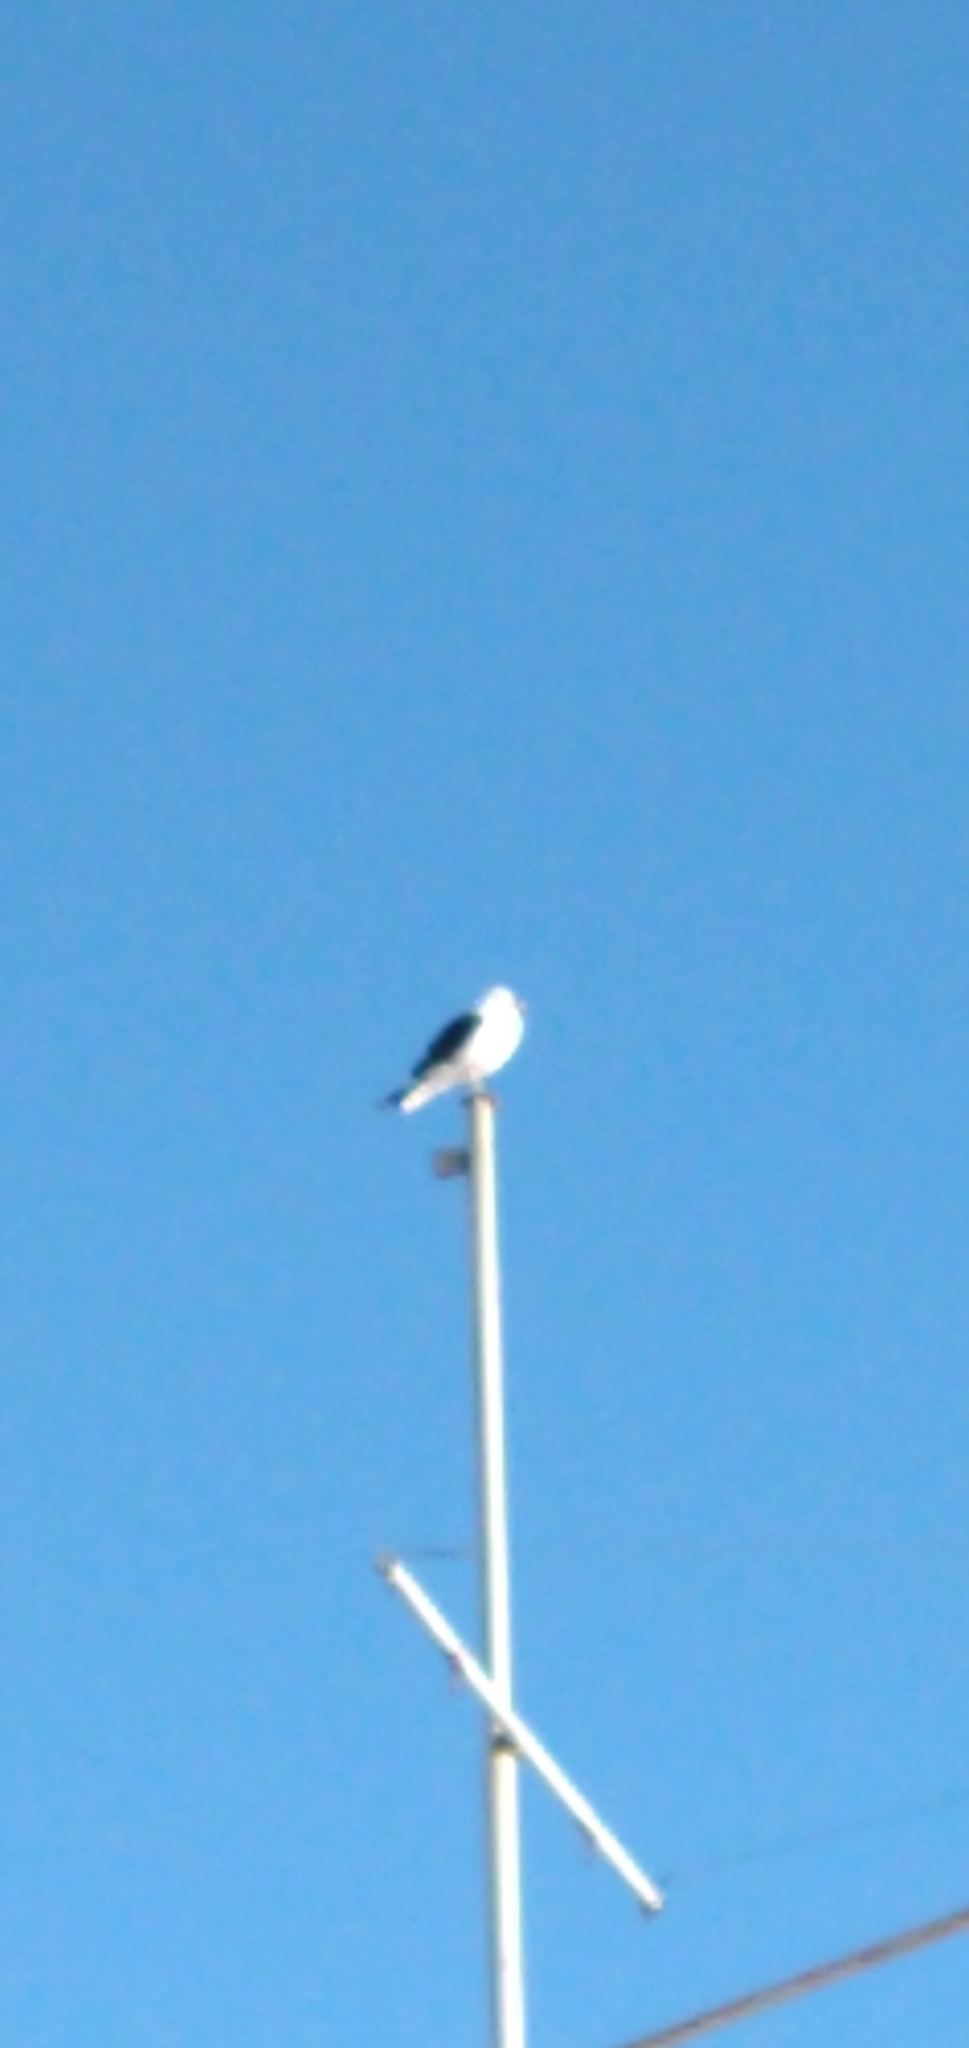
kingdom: Animalia
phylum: Chordata
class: Aves
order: Charadriiformes
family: Laridae
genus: Larus
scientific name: Larus dominicanus
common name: Kelp gull
